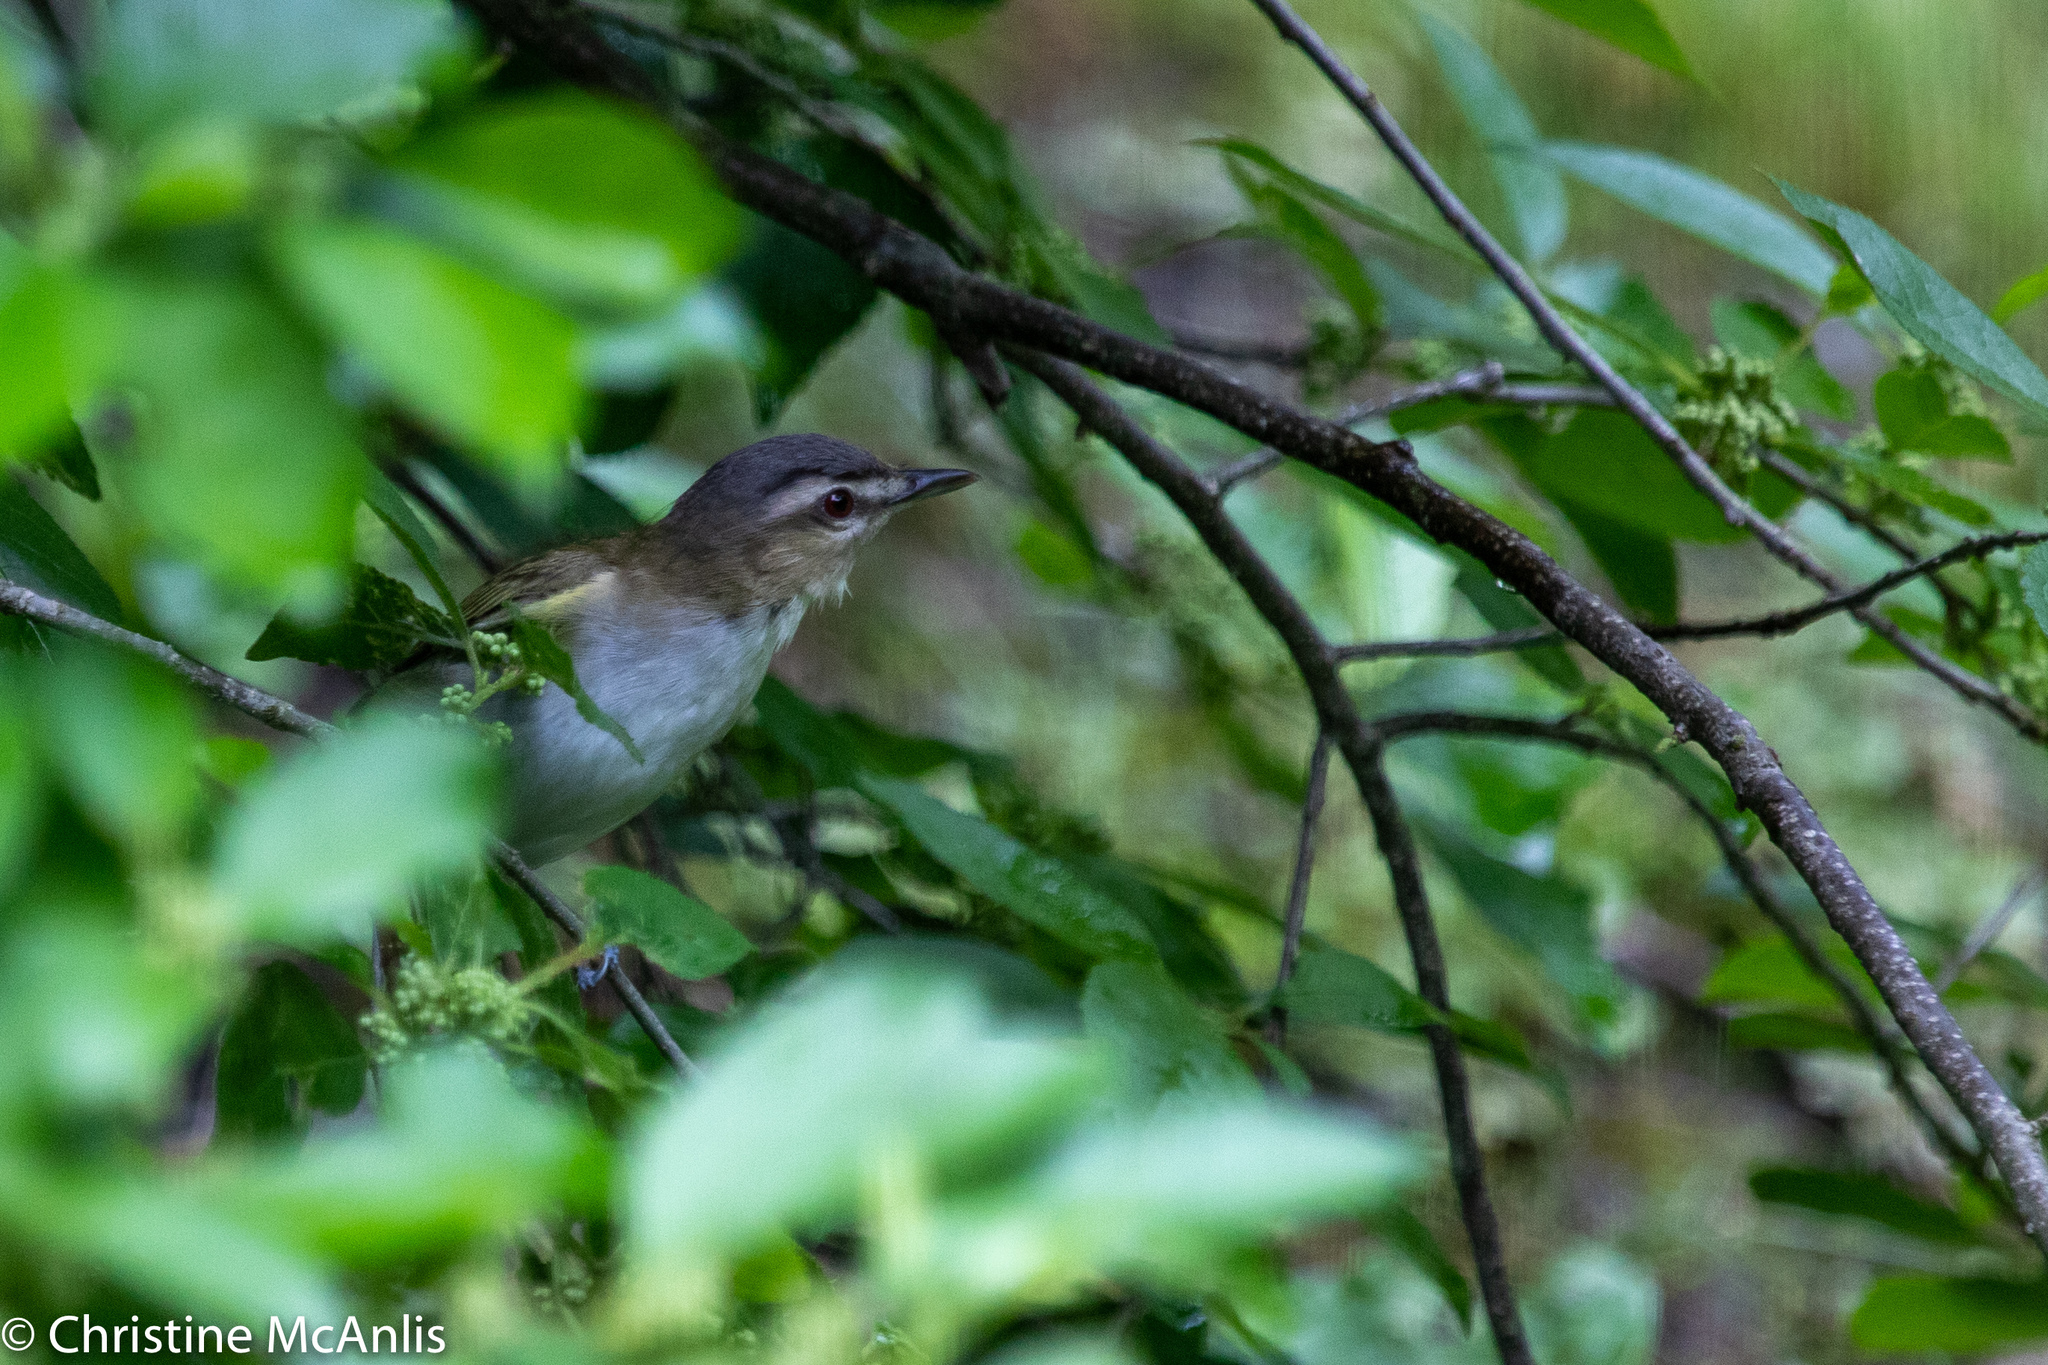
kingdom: Animalia
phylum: Chordata
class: Aves
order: Passeriformes
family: Vireonidae
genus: Vireo
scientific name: Vireo olivaceus
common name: Red-eyed vireo
